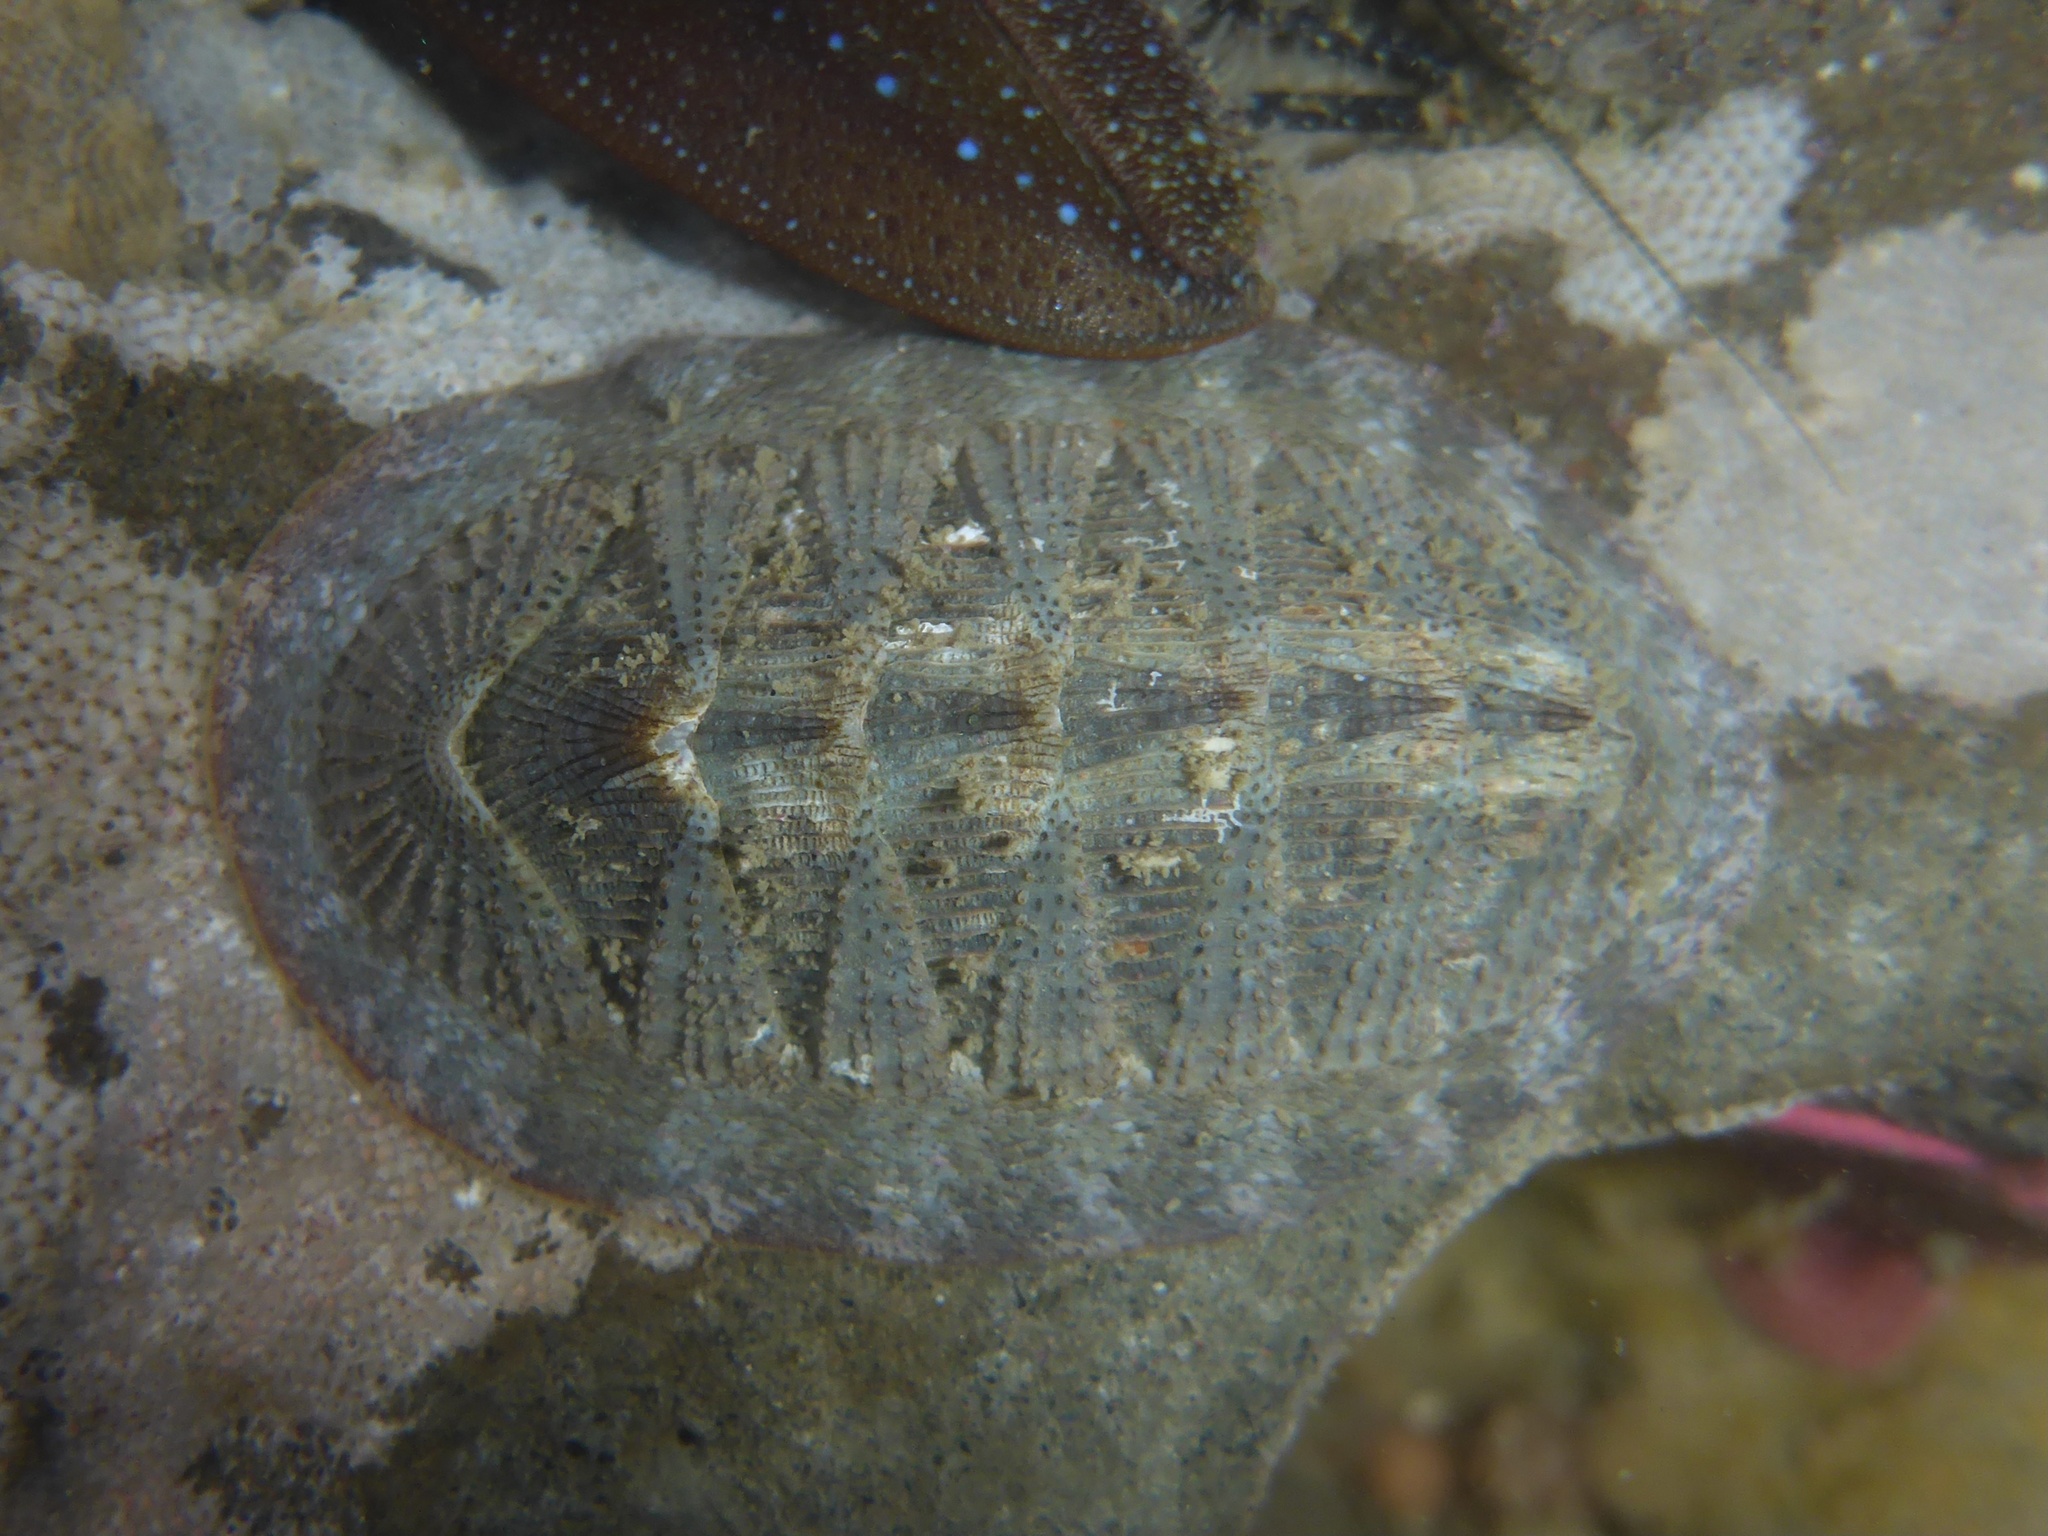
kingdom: Animalia
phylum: Mollusca
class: Polyplacophora
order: Chitonida
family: Ischnochitonidae
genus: Lepidozona
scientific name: Lepidozona cooperi
